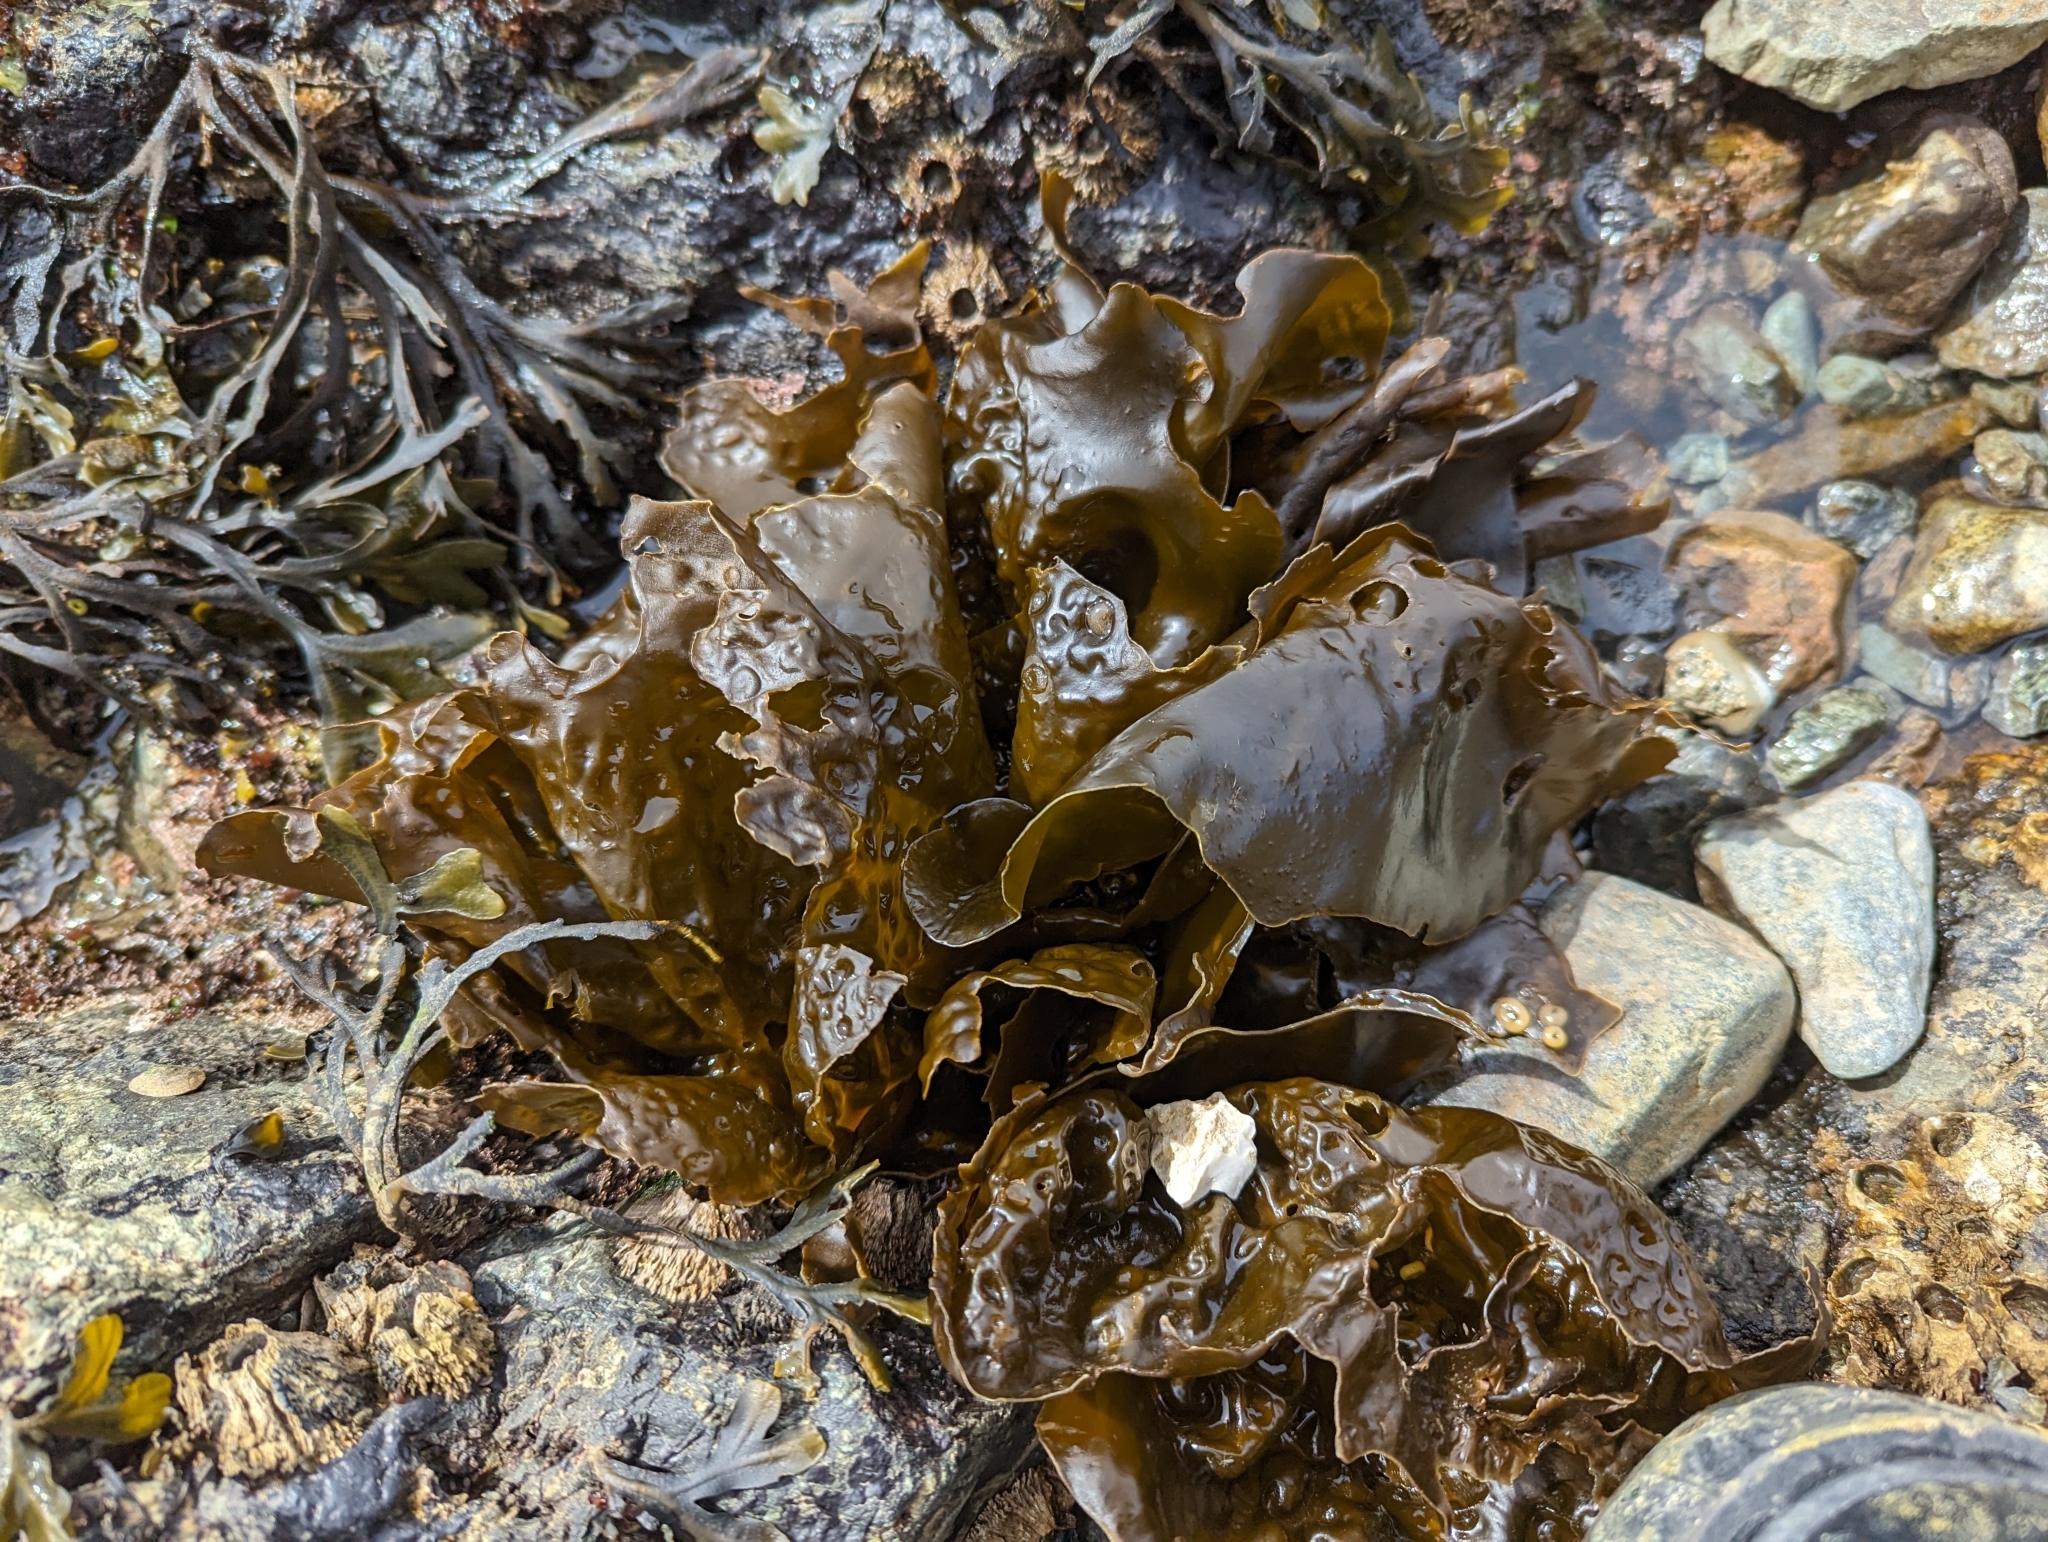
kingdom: Chromista
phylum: Ochrophyta
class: Phaeophyceae
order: Laminariales
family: Laminariaceae
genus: Hedophyllum
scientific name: Hedophyllum sessile
